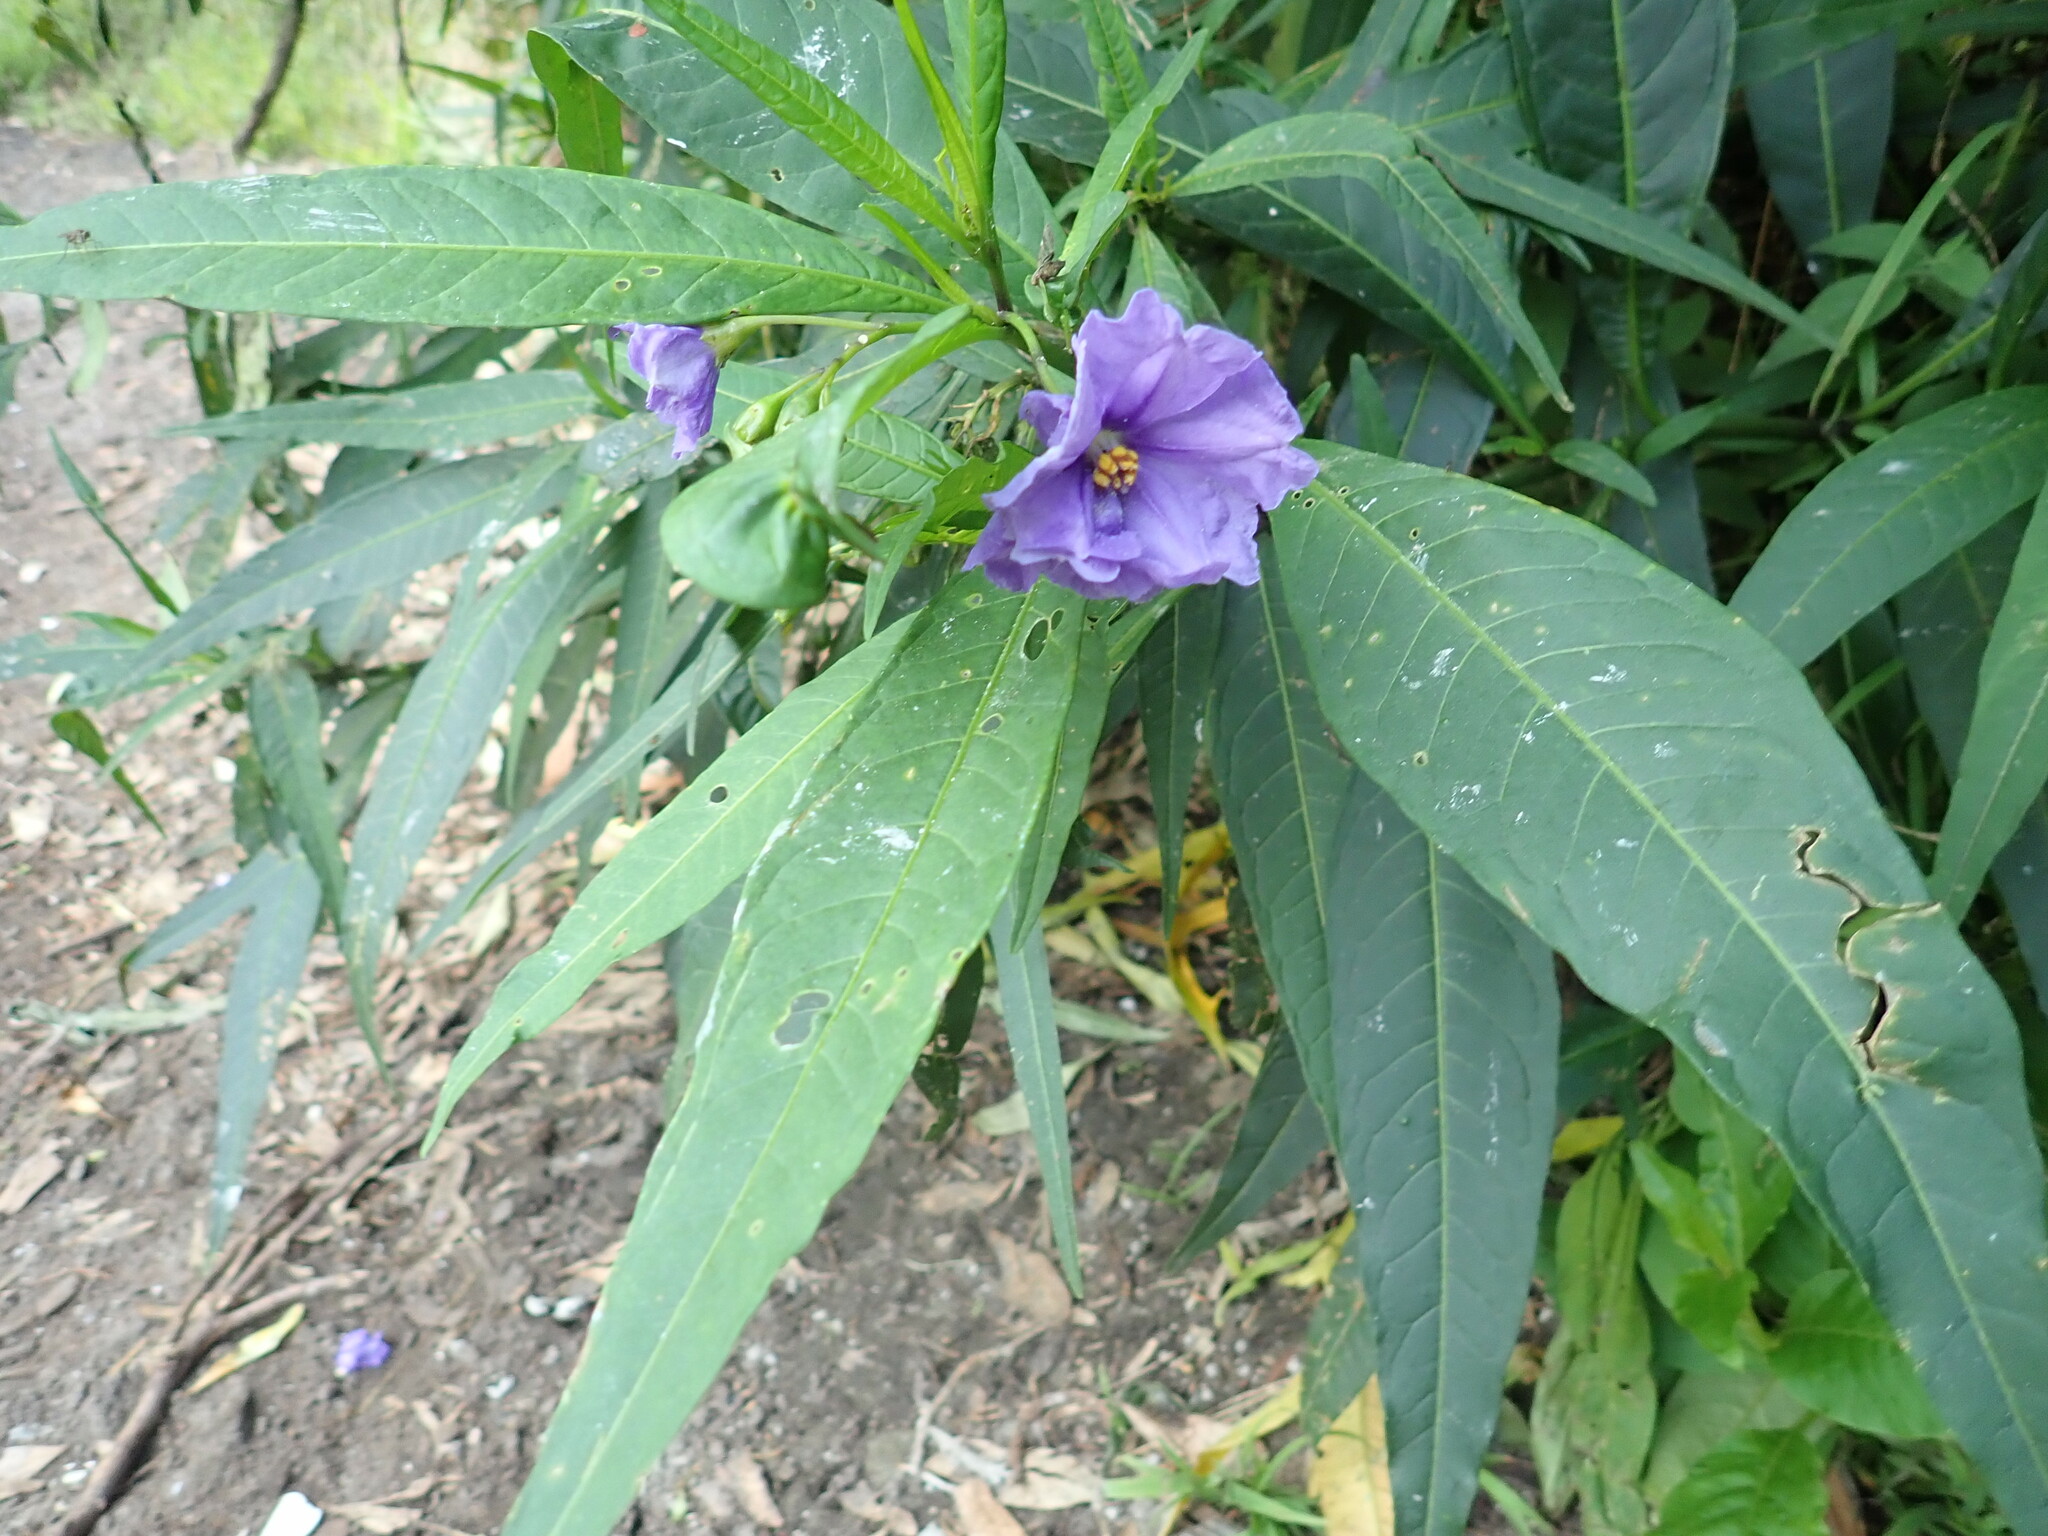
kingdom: Plantae
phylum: Tracheophyta
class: Magnoliopsida
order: Solanales
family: Solanaceae
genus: Solanum
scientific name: Solanum laciniatum
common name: Kangaroo-apple
